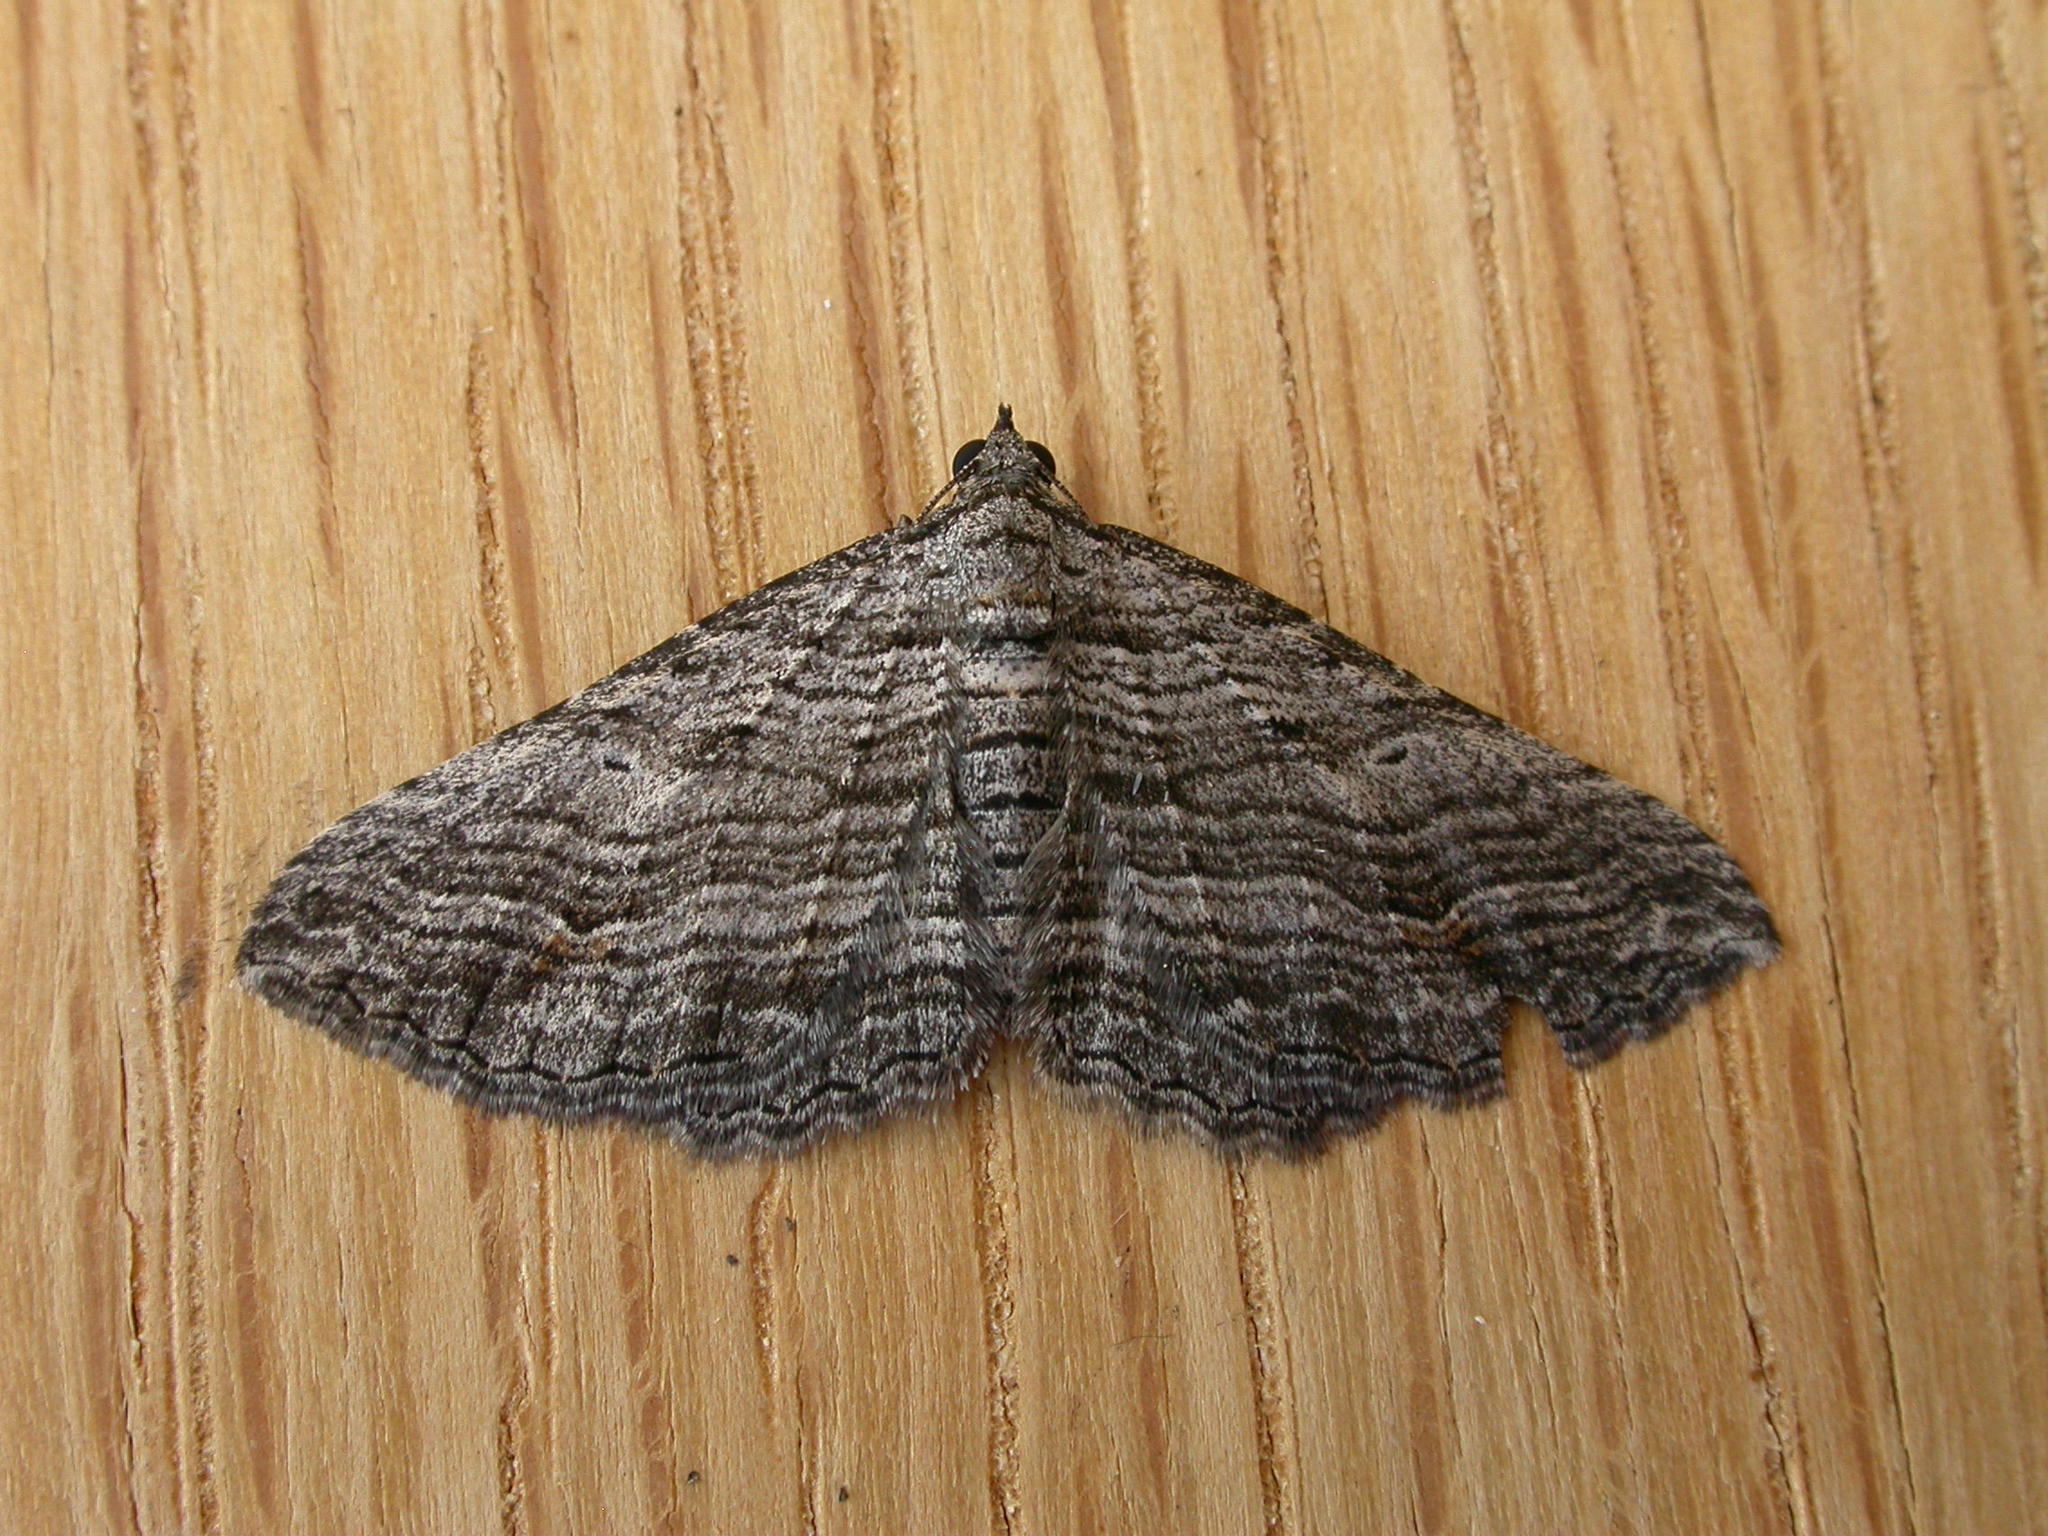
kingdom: Animalia
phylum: Arthropoda
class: Insecta
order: Lepidoptera
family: Geometridae
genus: Chrysolarentia
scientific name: Chrysolarentia severata
